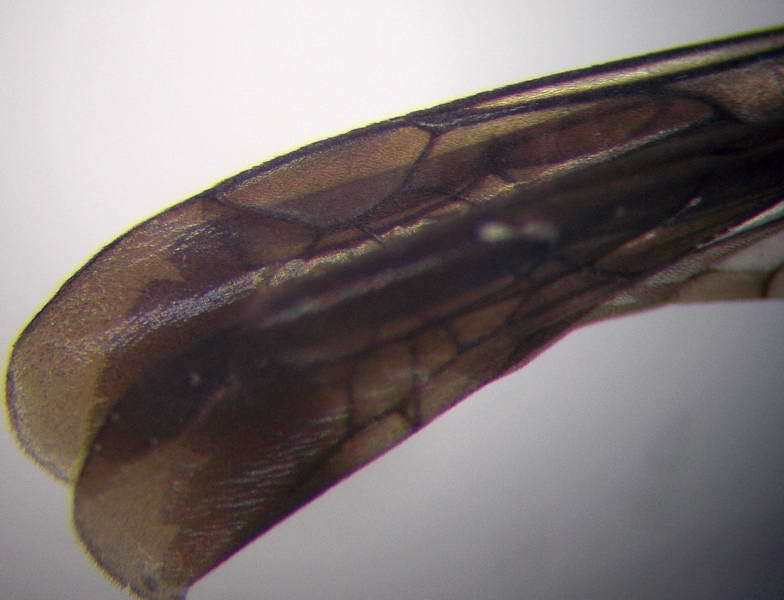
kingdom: Animalia
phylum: Arthropoda
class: Insecta
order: Hymenoptera
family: Pompilidae
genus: Aporinellus
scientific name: Aporinellus moestus
